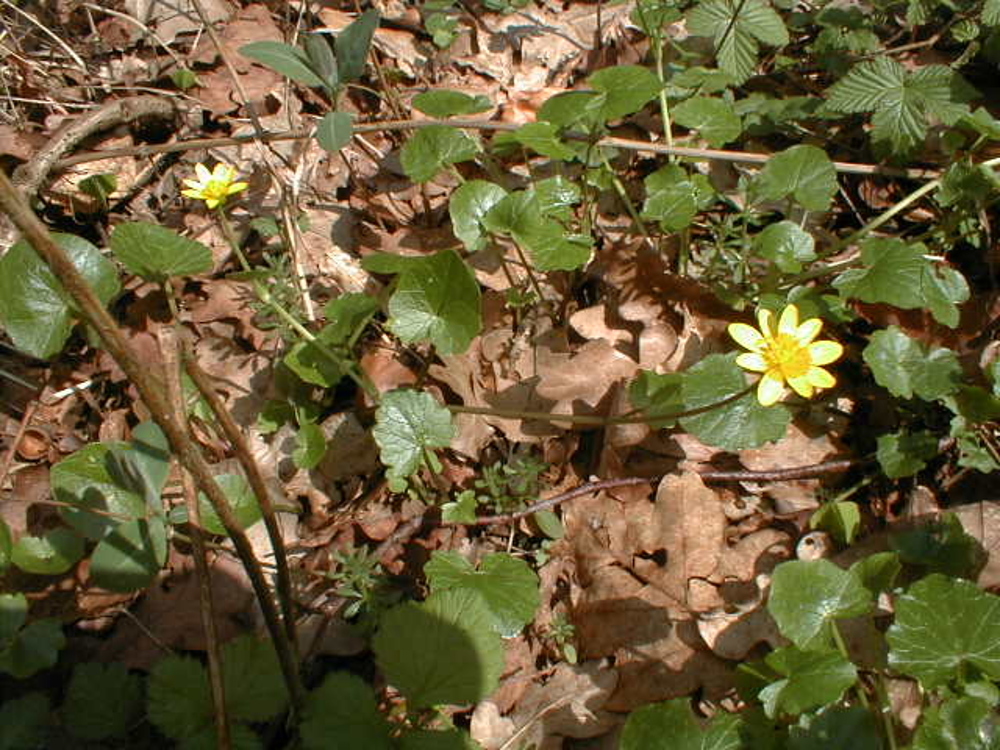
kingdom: Plantae
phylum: Tracheophyta
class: Magnoliopsida
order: Ranunculales
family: Ranunculaceae
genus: Ficaria
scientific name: Ficaria verna
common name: Lesser celandine
